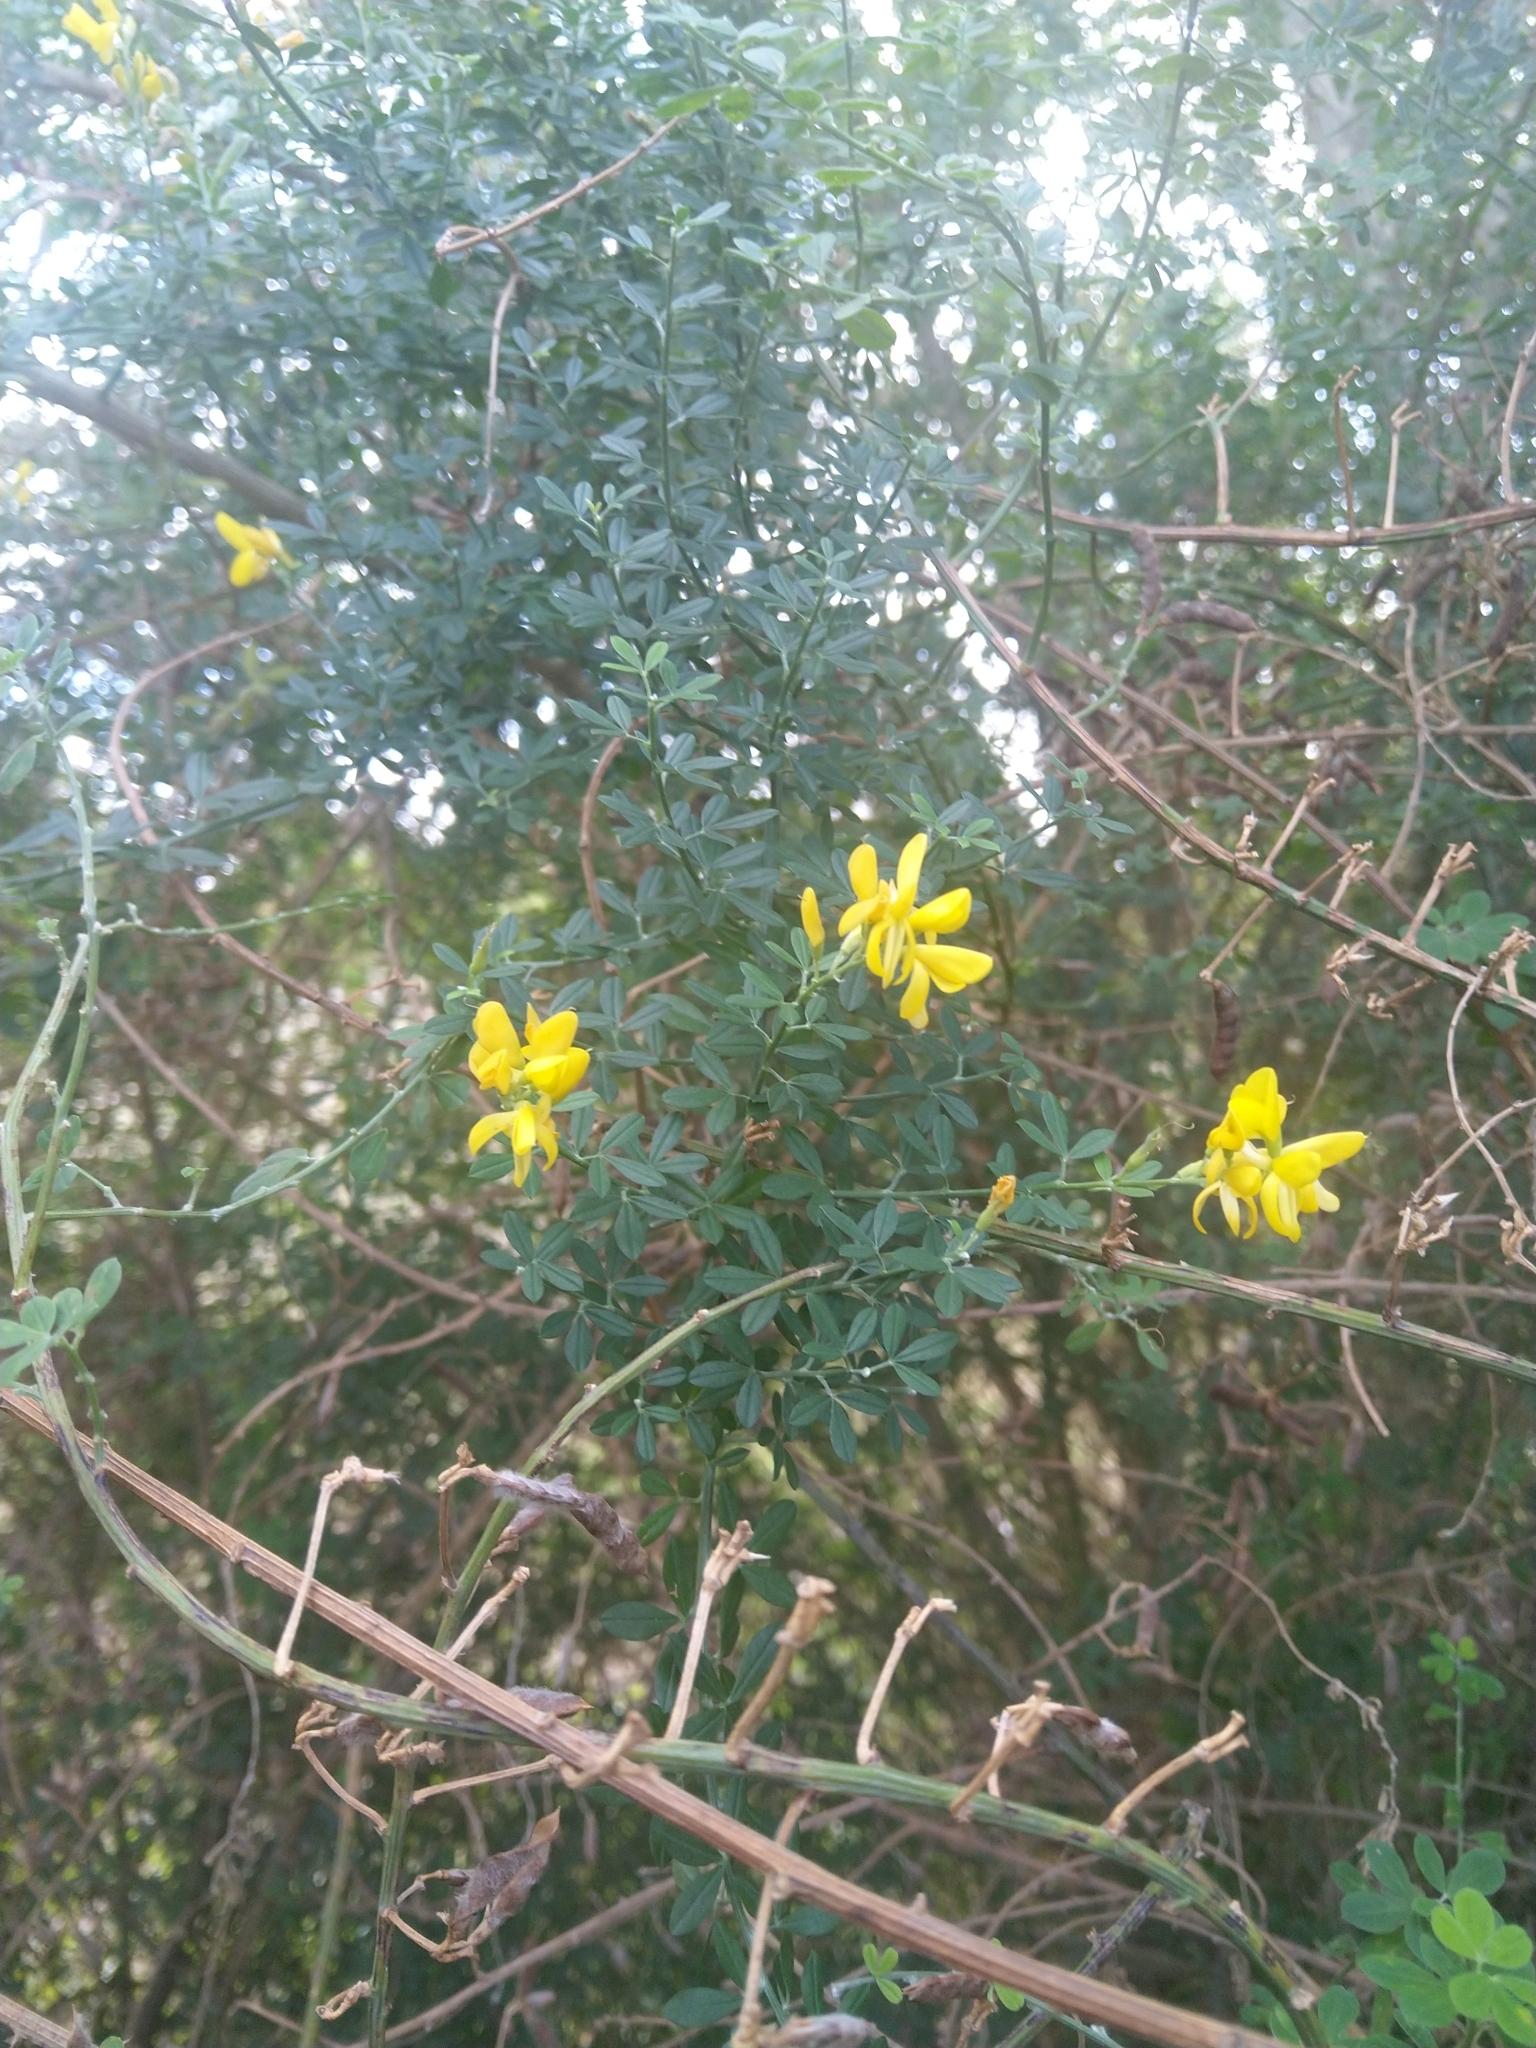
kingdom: Plantae
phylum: Tracheophyta
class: Magnoliopsida
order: Fabales
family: Fabaceae
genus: Chamaecytisus
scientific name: Chamaecytisus prolifer
